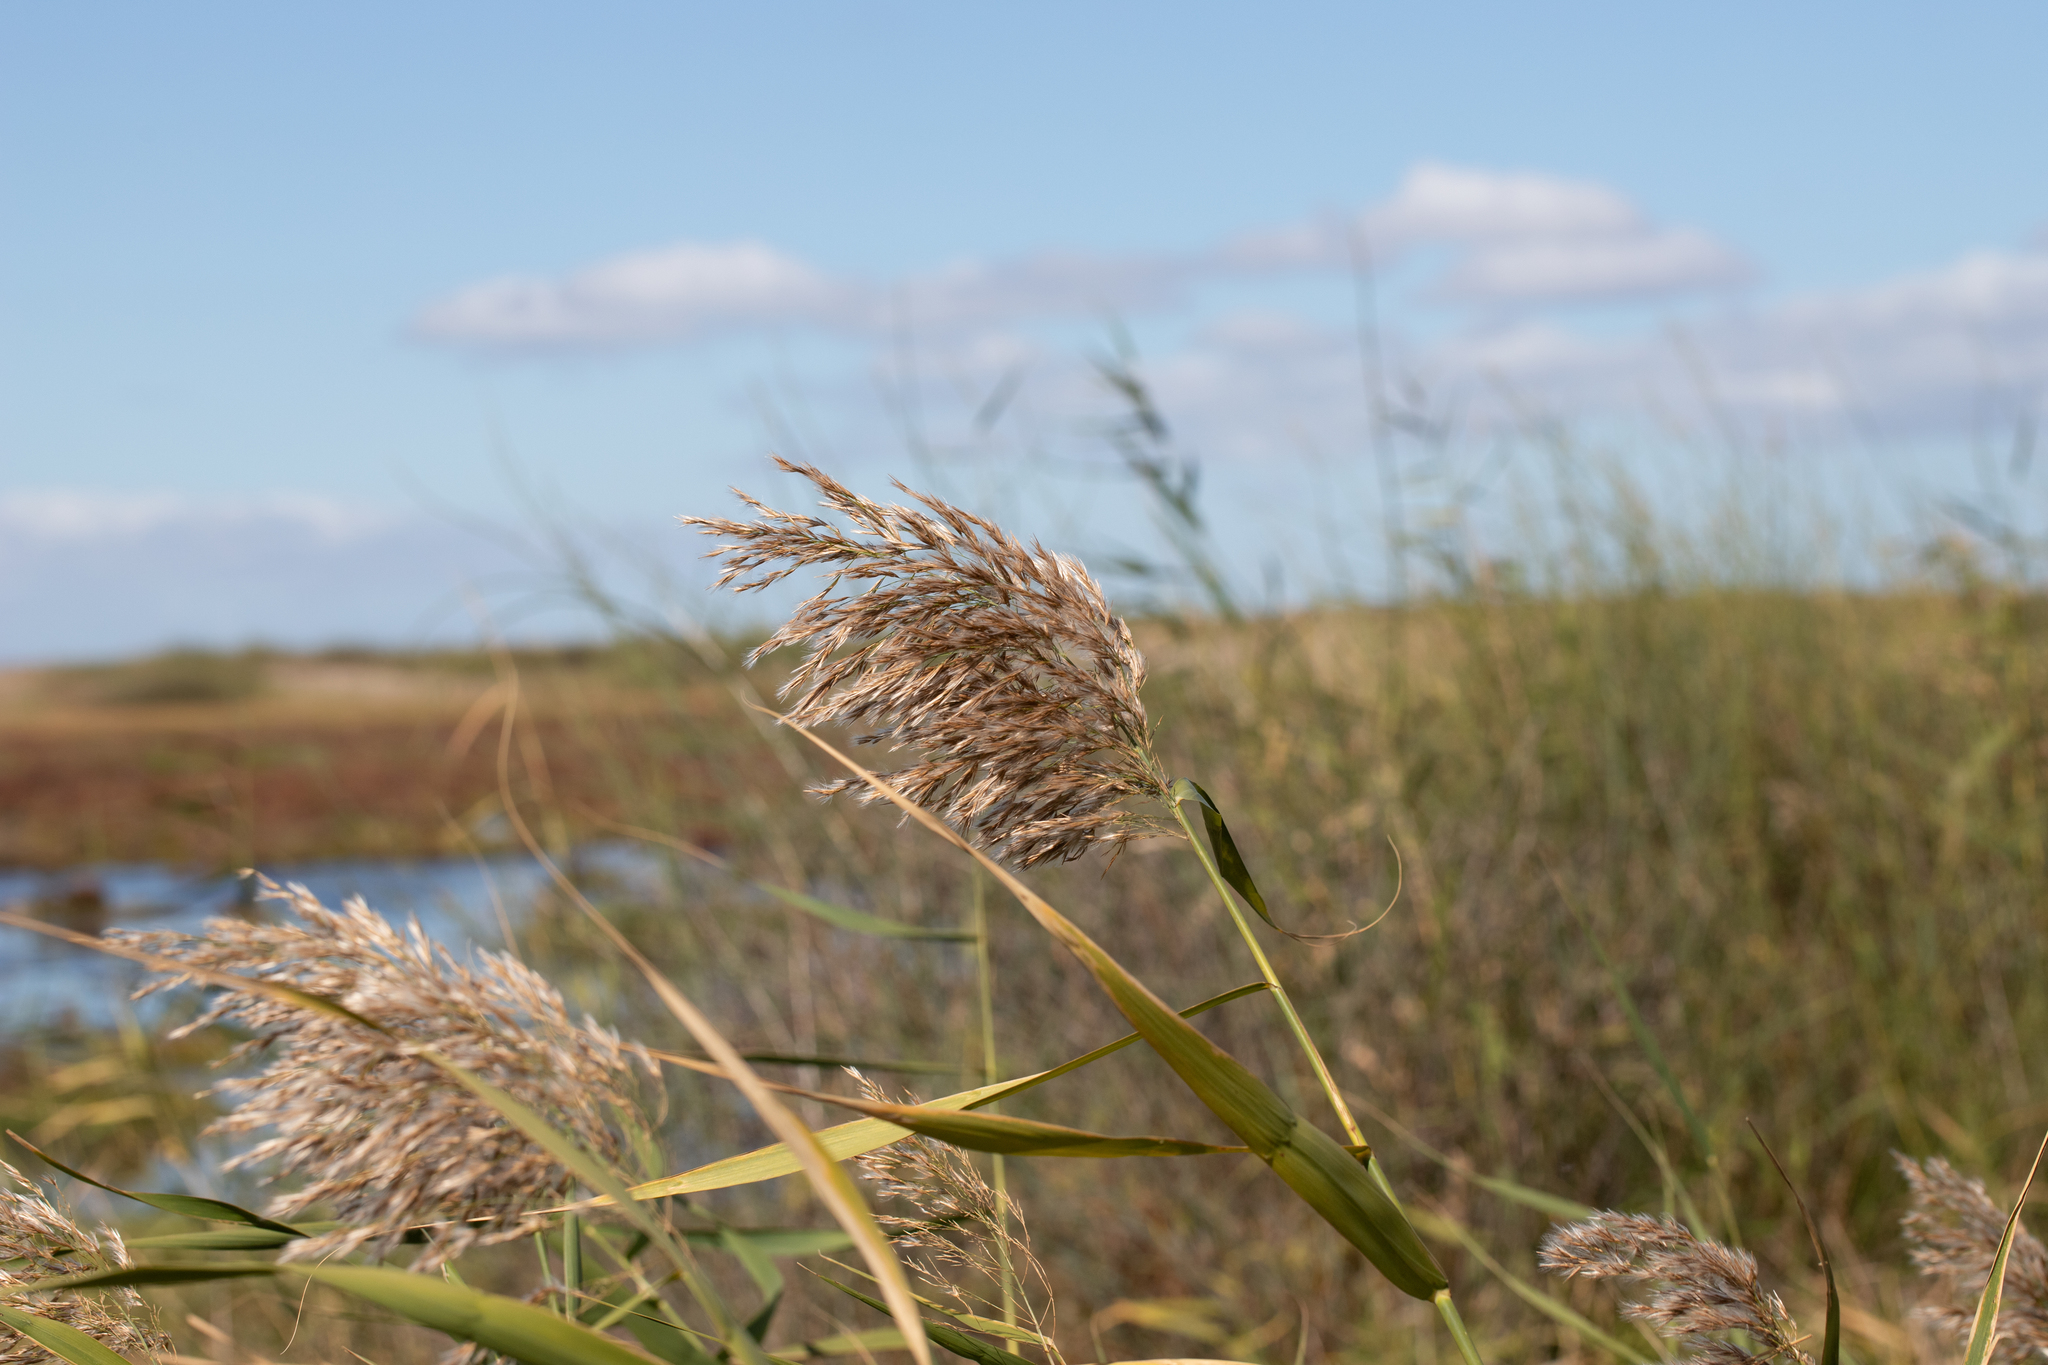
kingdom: Plantae
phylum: Tracheophyta
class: Liliopsida
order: Poales
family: Poaceae
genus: Phragmites
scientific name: Phragmites australis
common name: Common reed
